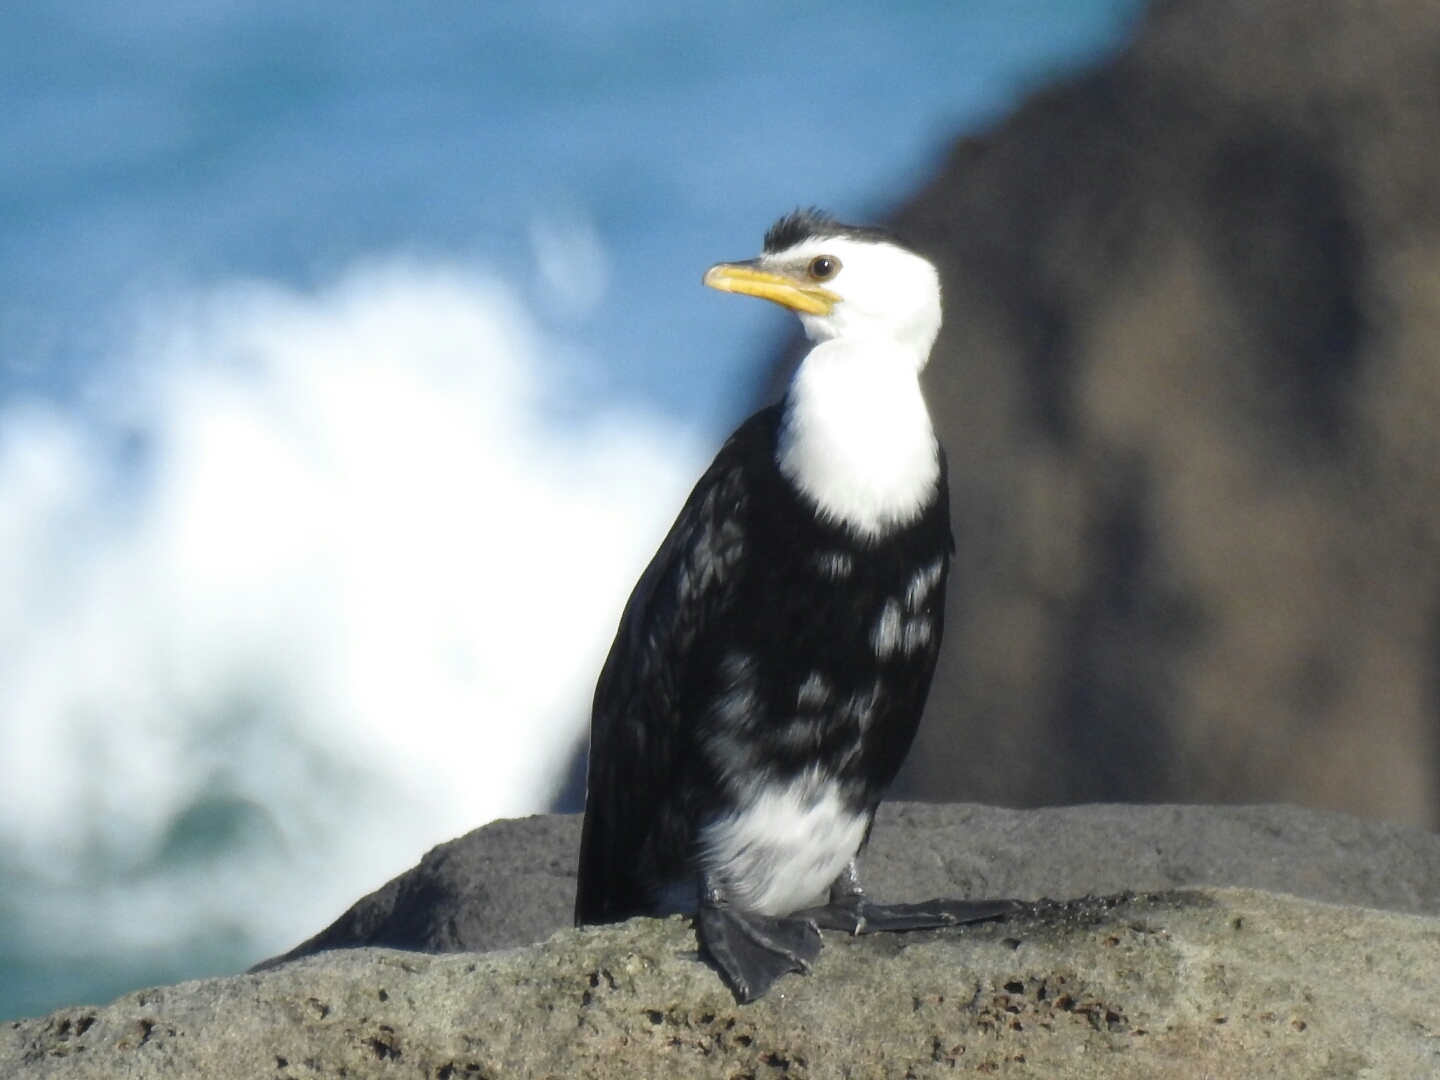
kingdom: Animalia
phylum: Chordata
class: Aves
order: Suliformes
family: Phalacrocoracidae
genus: Microcarbo
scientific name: Microcarbo melanoleucos
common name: Little pied cormorant
